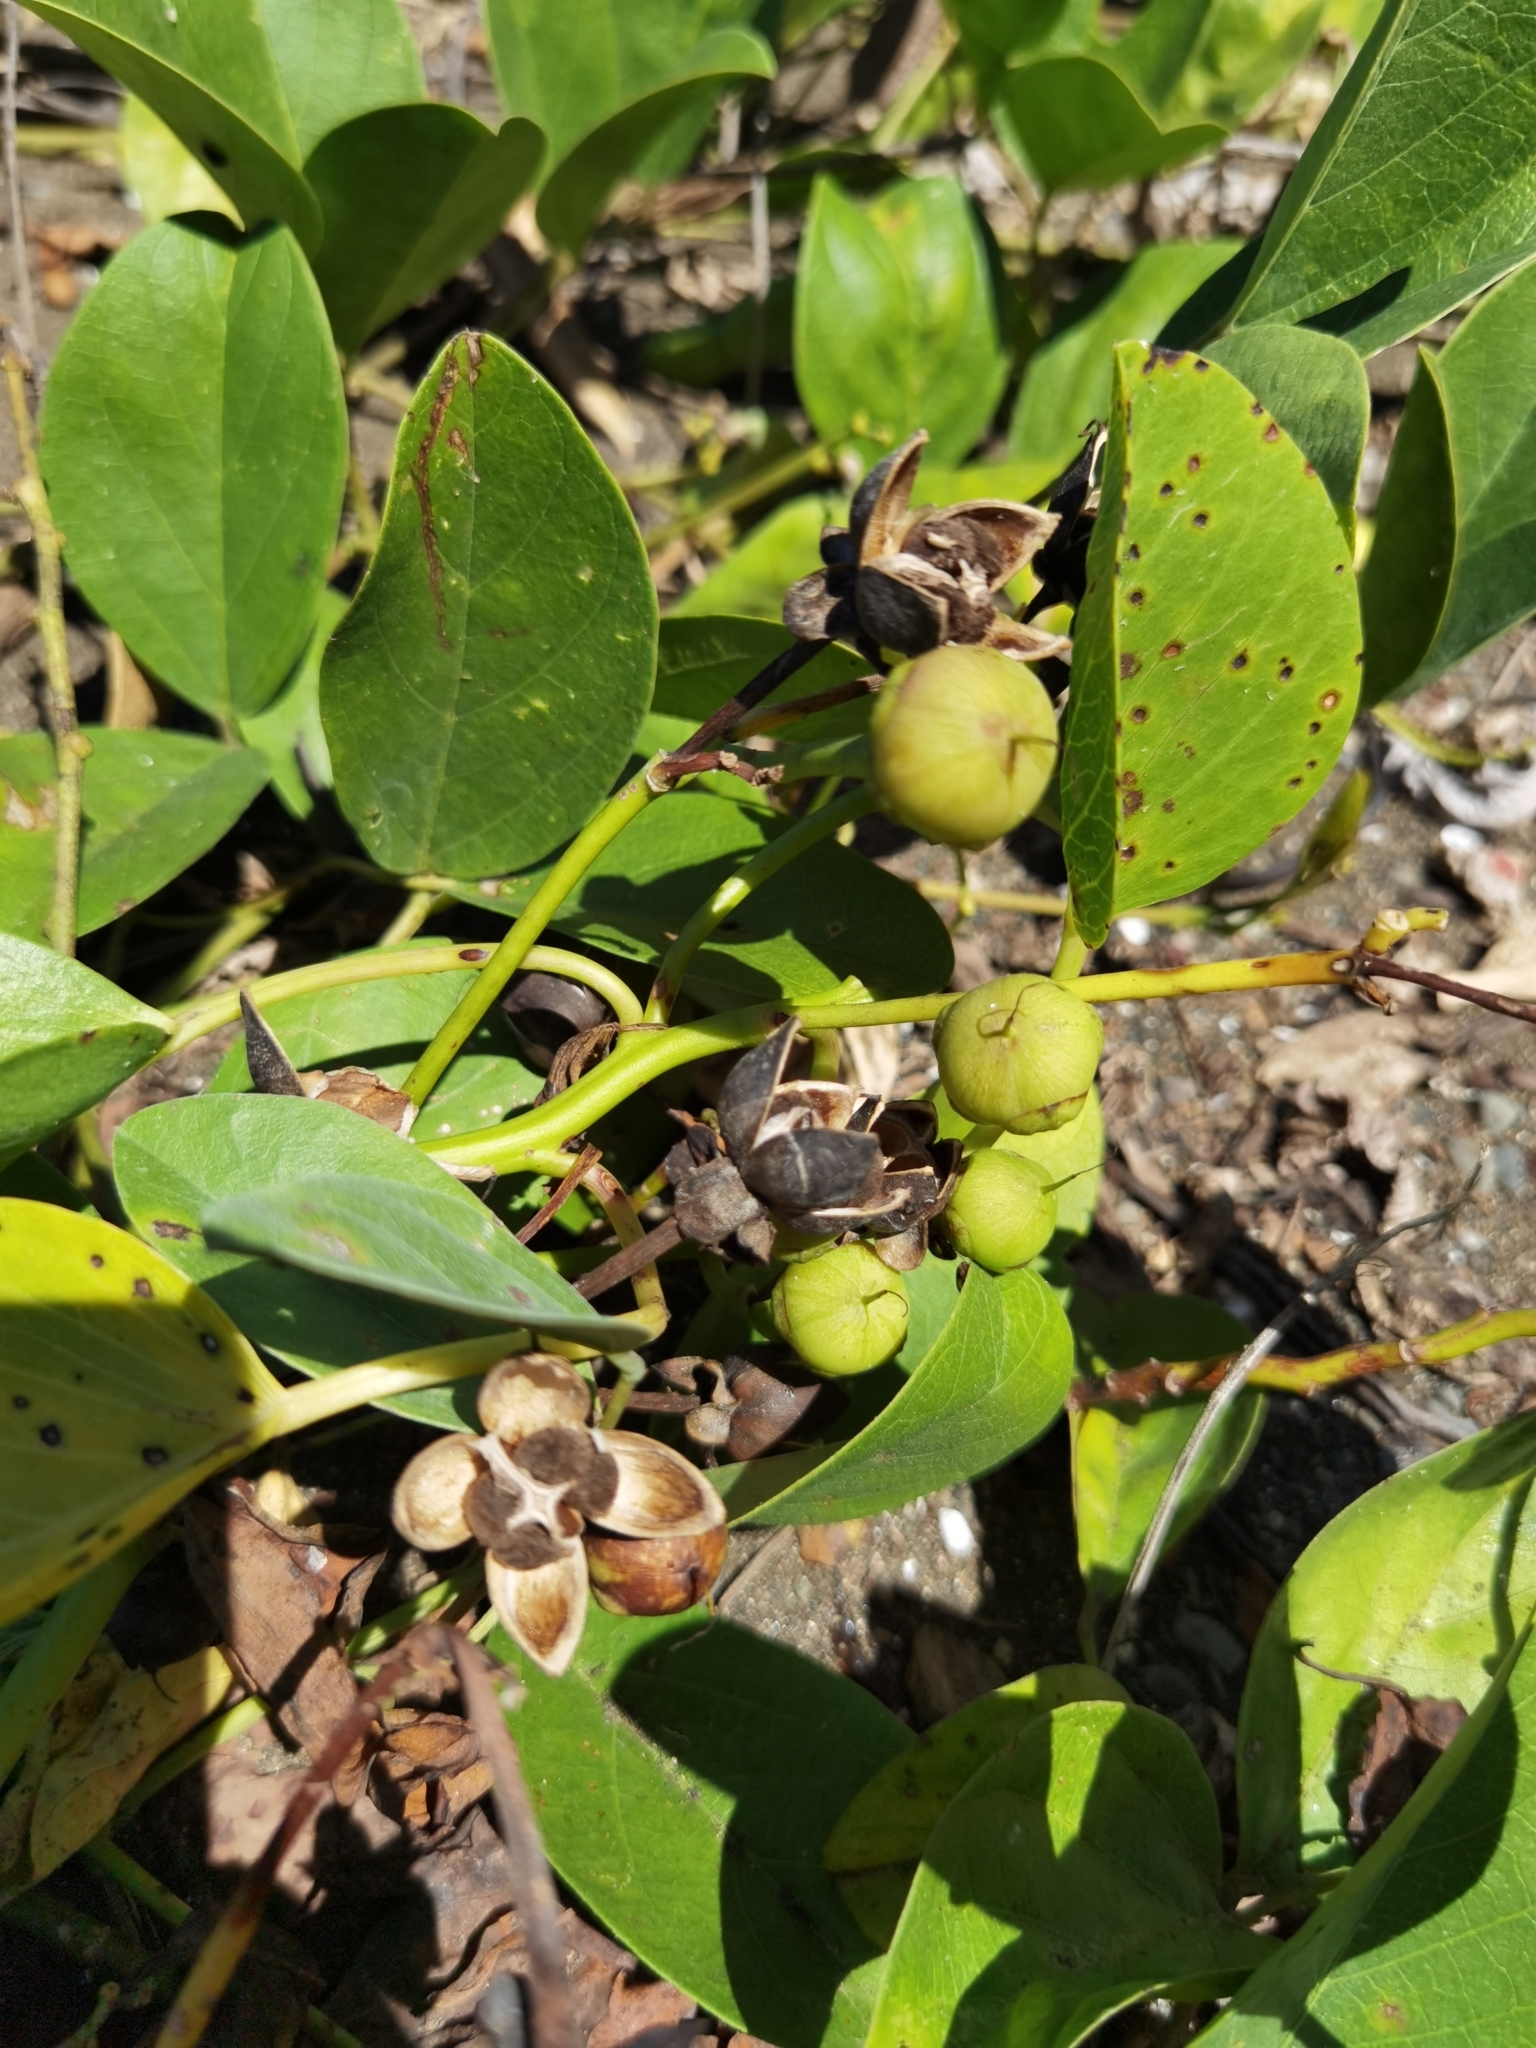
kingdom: Plantae
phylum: Tracheophyta
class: Magnoliopsida
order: Solanales
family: Convolvulaceae
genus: Ipomoea
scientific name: Ipomoea pes-caprae
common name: Beach morning glory
